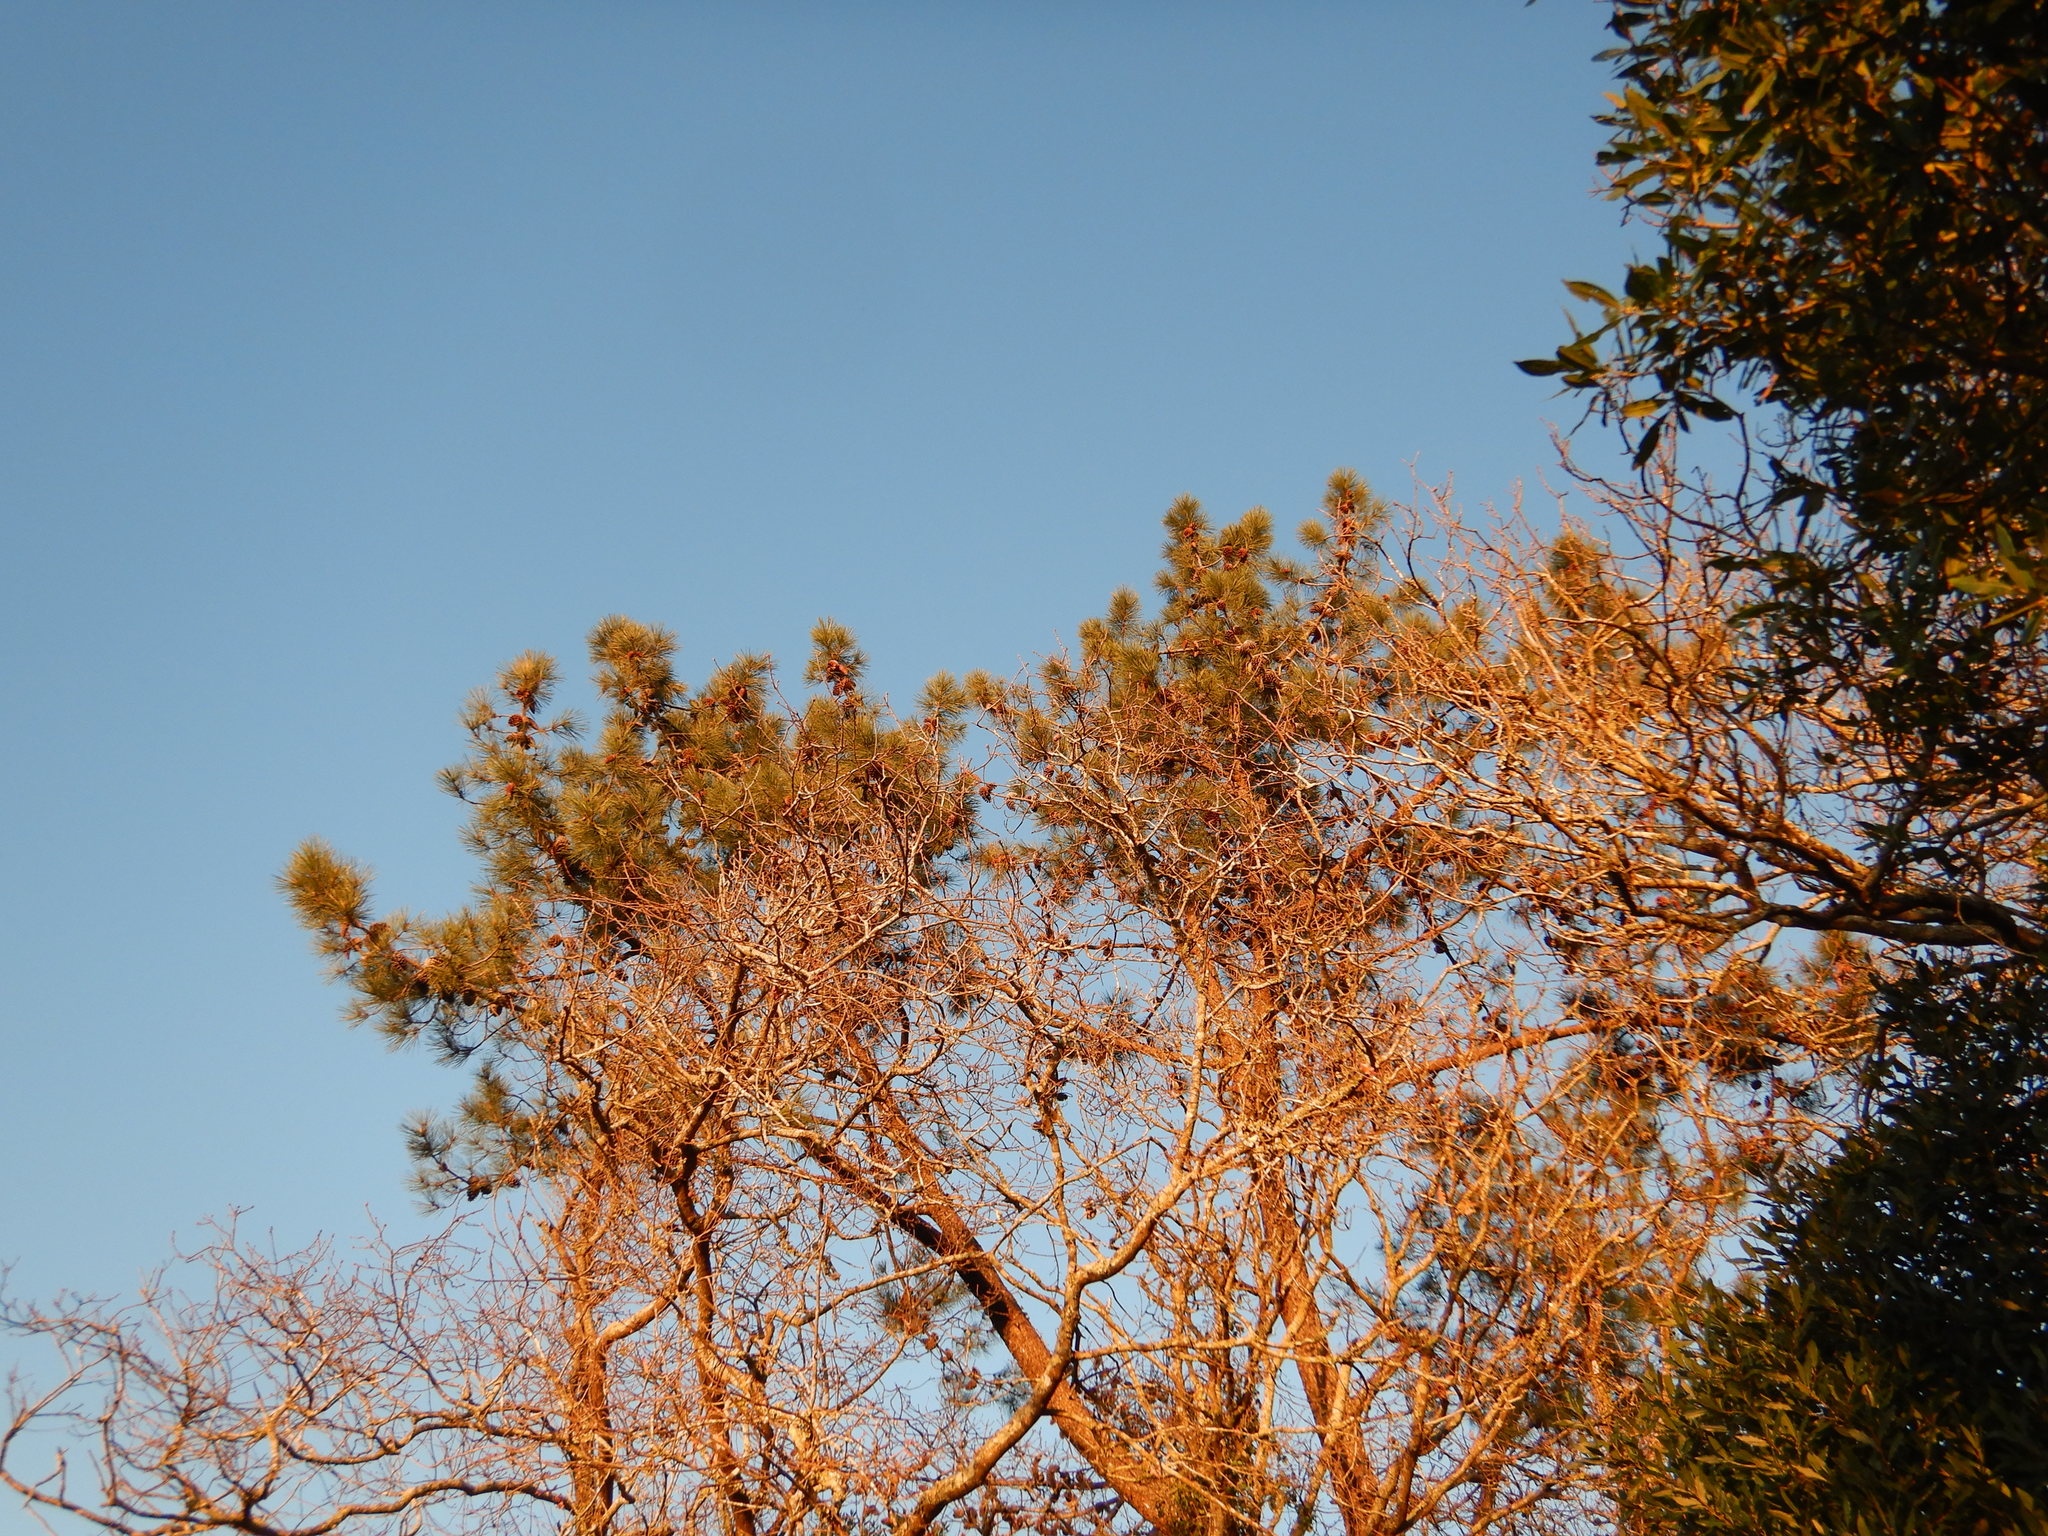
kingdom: Plantae
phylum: Tracheophyta
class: Pinopsida
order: Pinales
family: Pinaceae
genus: Pinus
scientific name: Pinus pinaster
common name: Maritime pine
